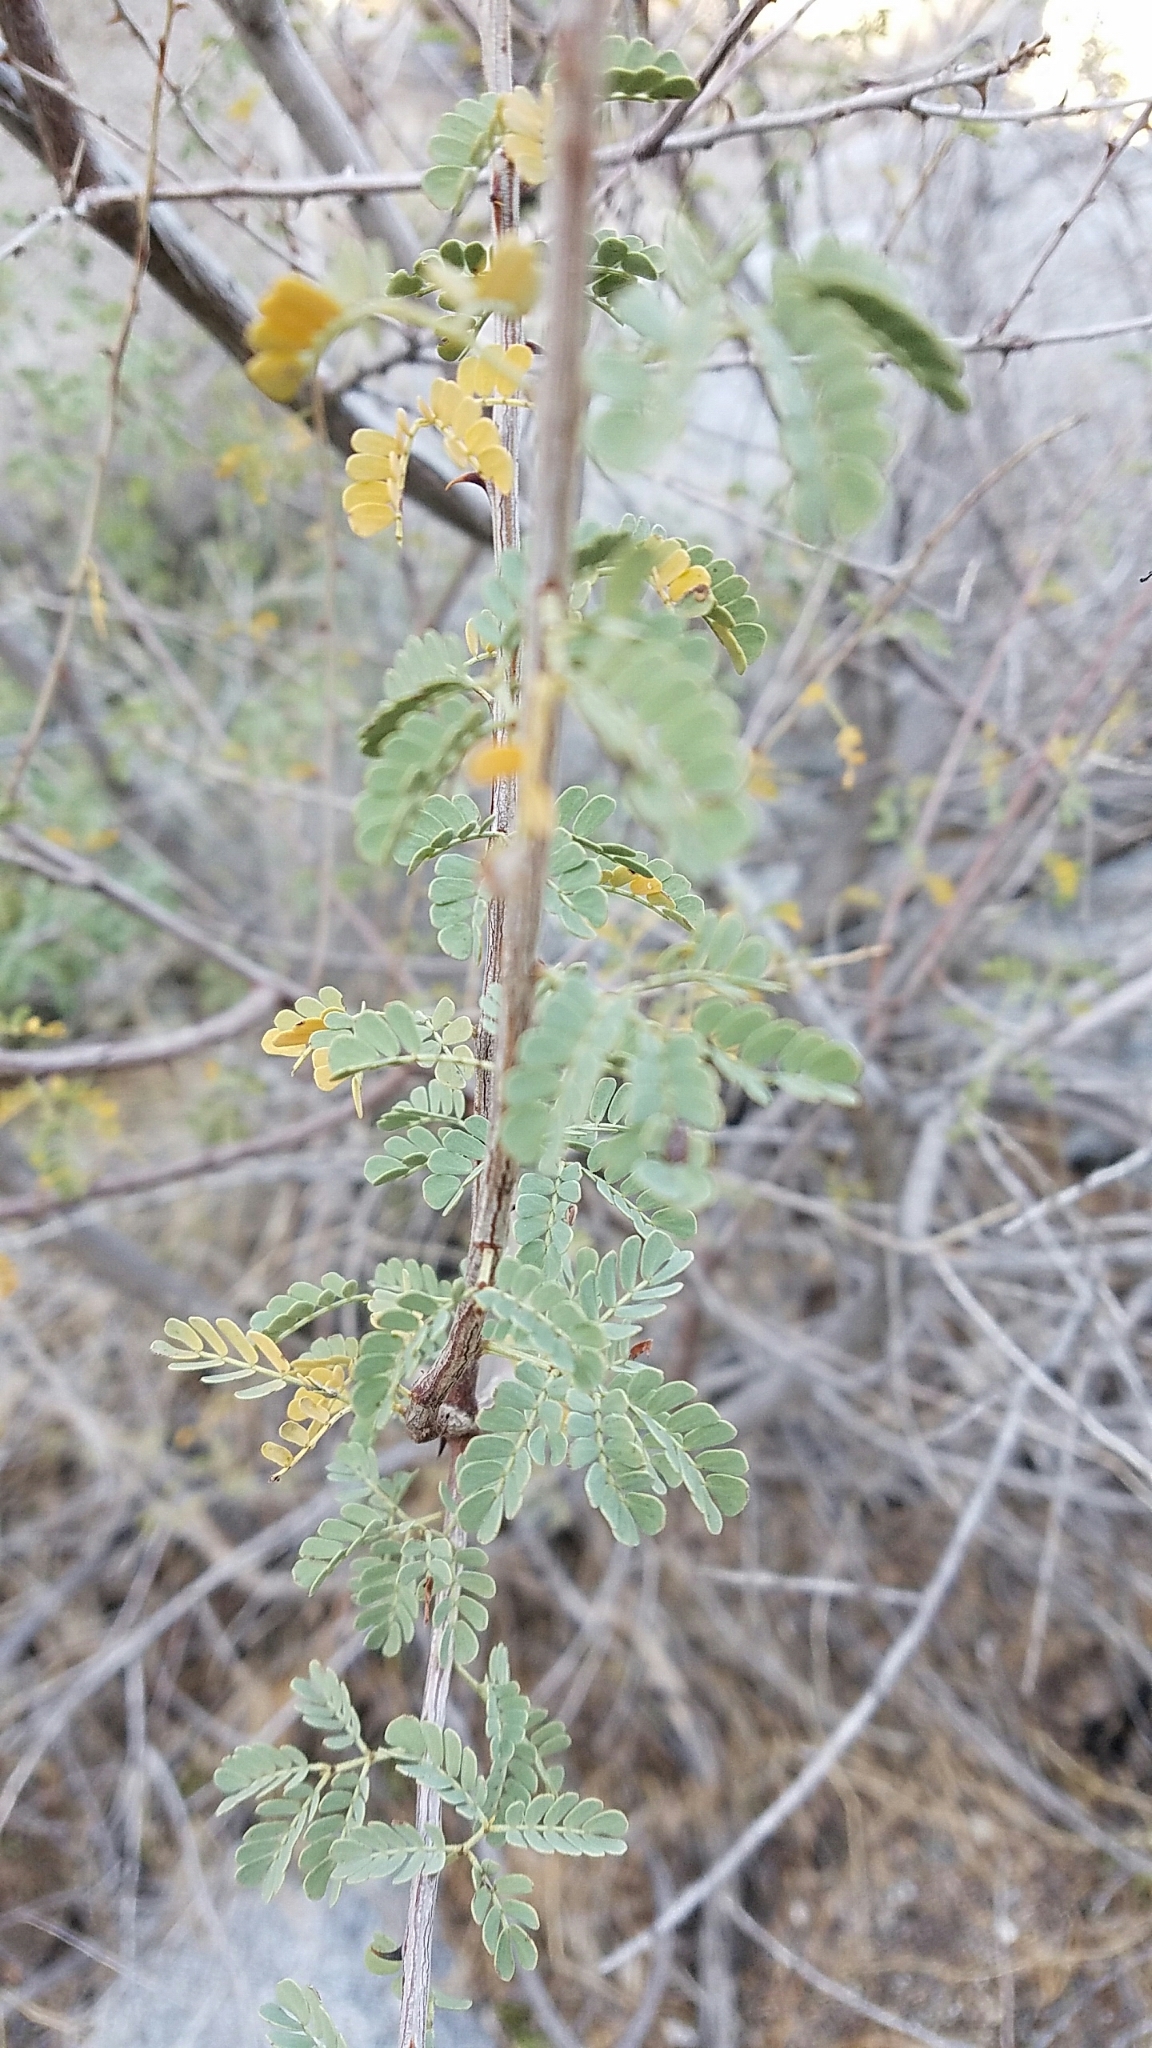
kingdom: Plantae
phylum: Tracheophyta
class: Magnoliopsida
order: Fabales
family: Fabaceae
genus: Senegalia
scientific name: Senegalia greggii
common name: Texas-mimosa
